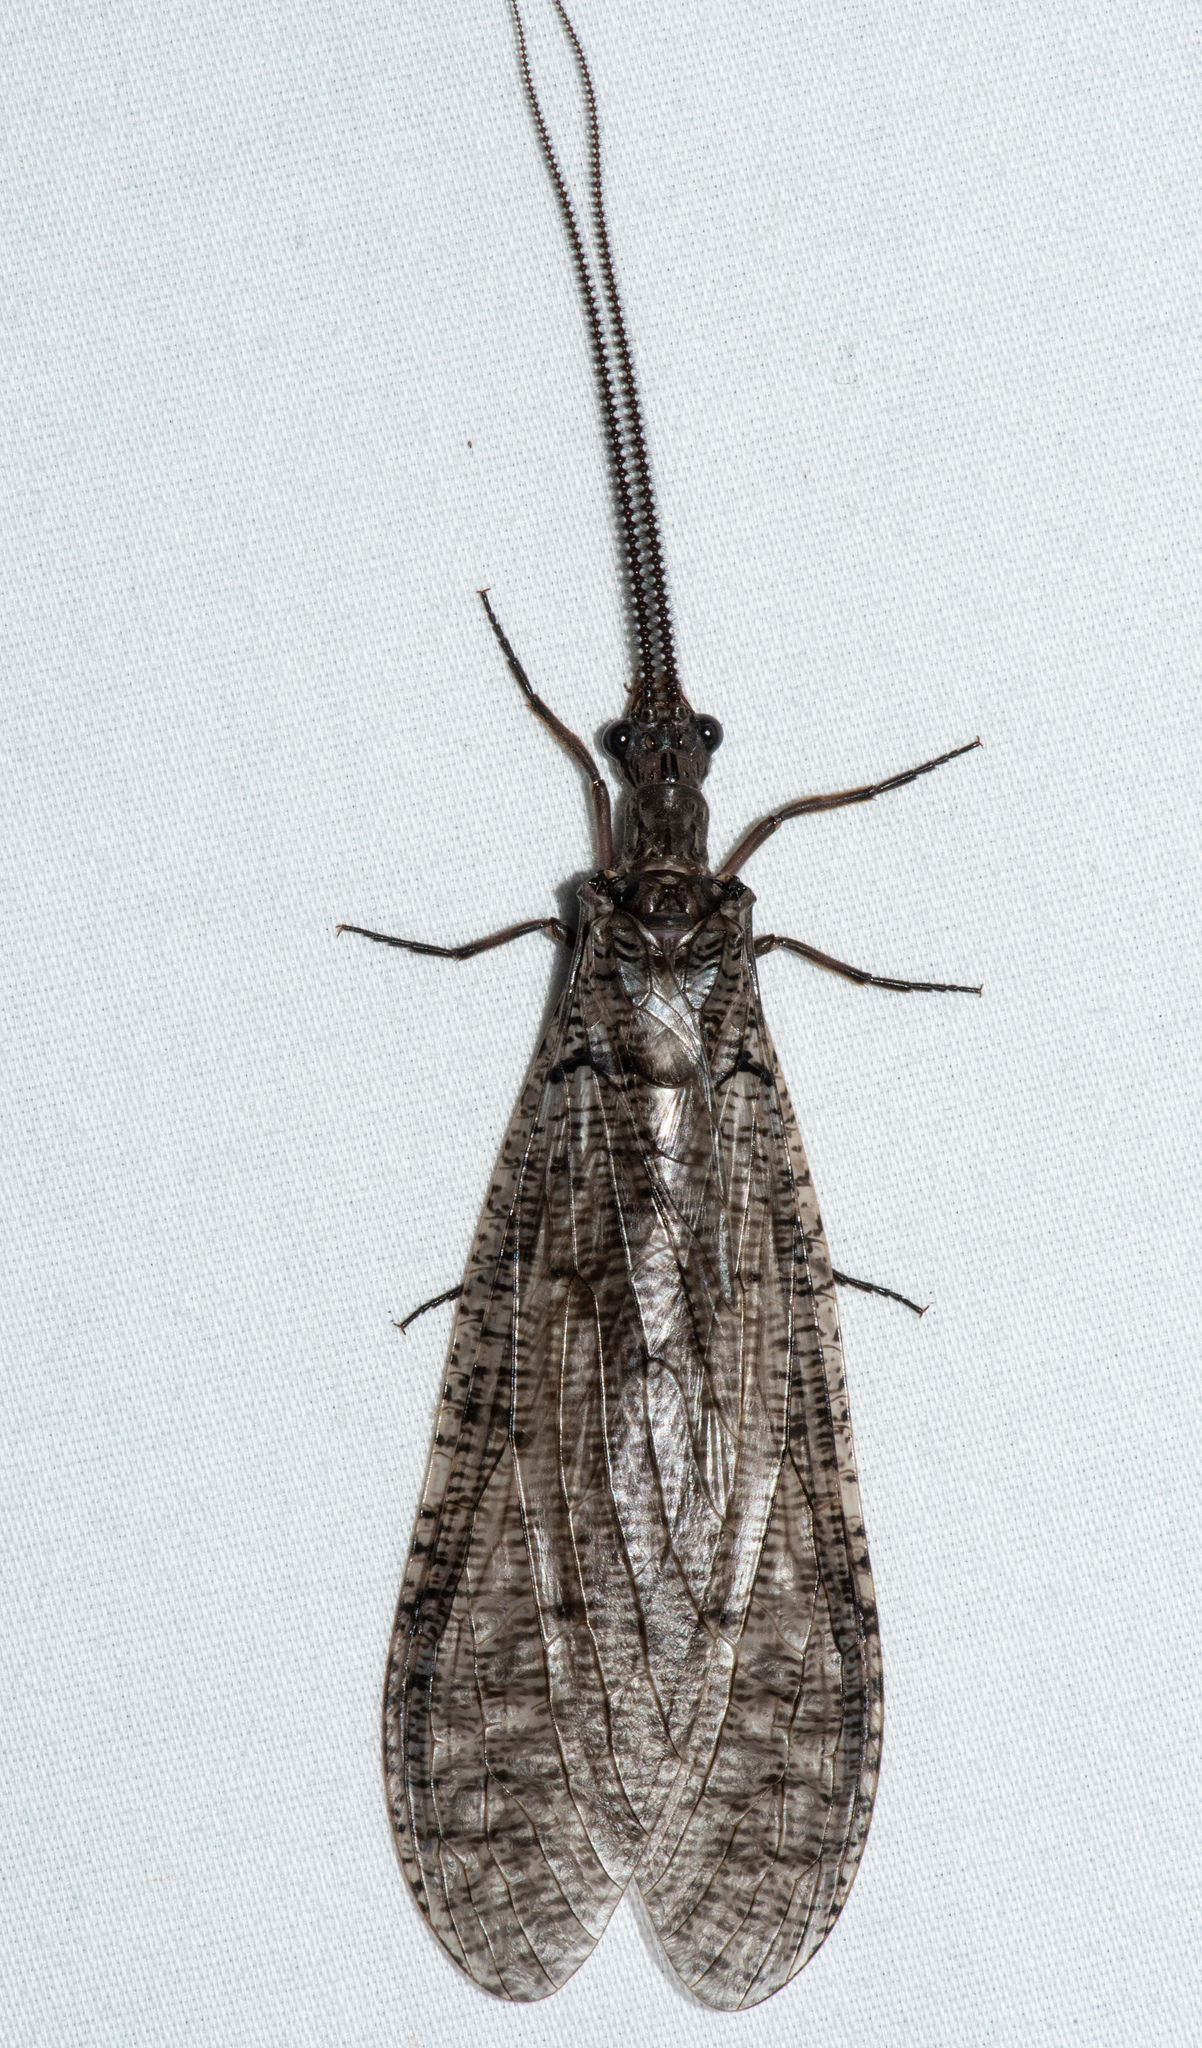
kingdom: Animalia
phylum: Arthropoda
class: Insecta
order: Megaloptera
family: Corydalidae
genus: Neohermes
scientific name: Neohermes filicornis
